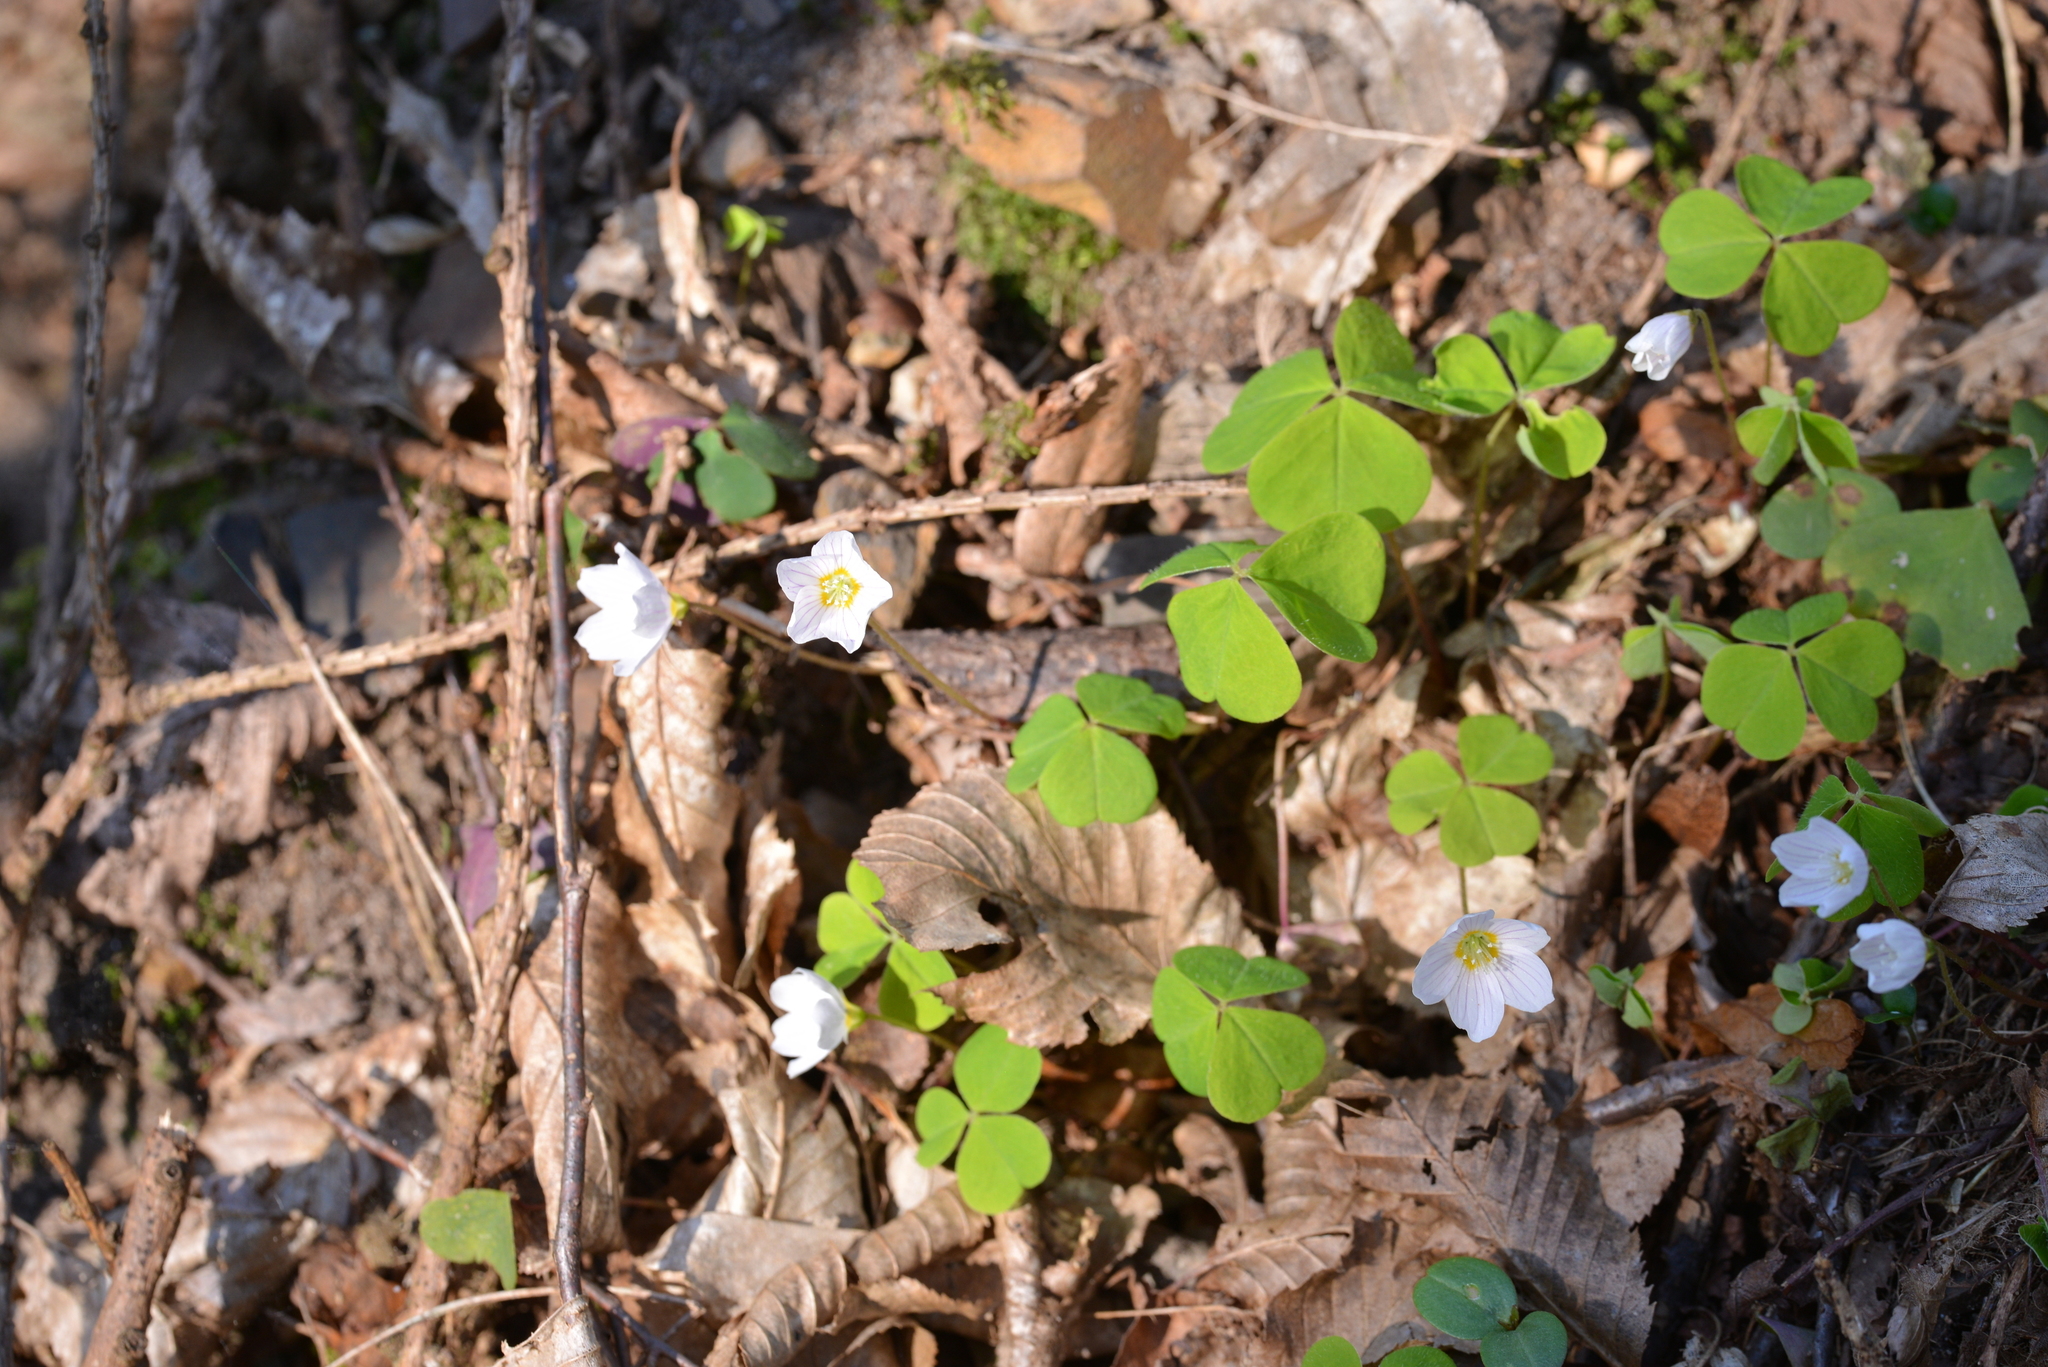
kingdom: Plantae
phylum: Tracheophyta
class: Magnoliopsida
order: Oxalidales
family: Oxalidaceae
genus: Oxalis
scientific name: Oxalis acetosella
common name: Wood-sorrel
